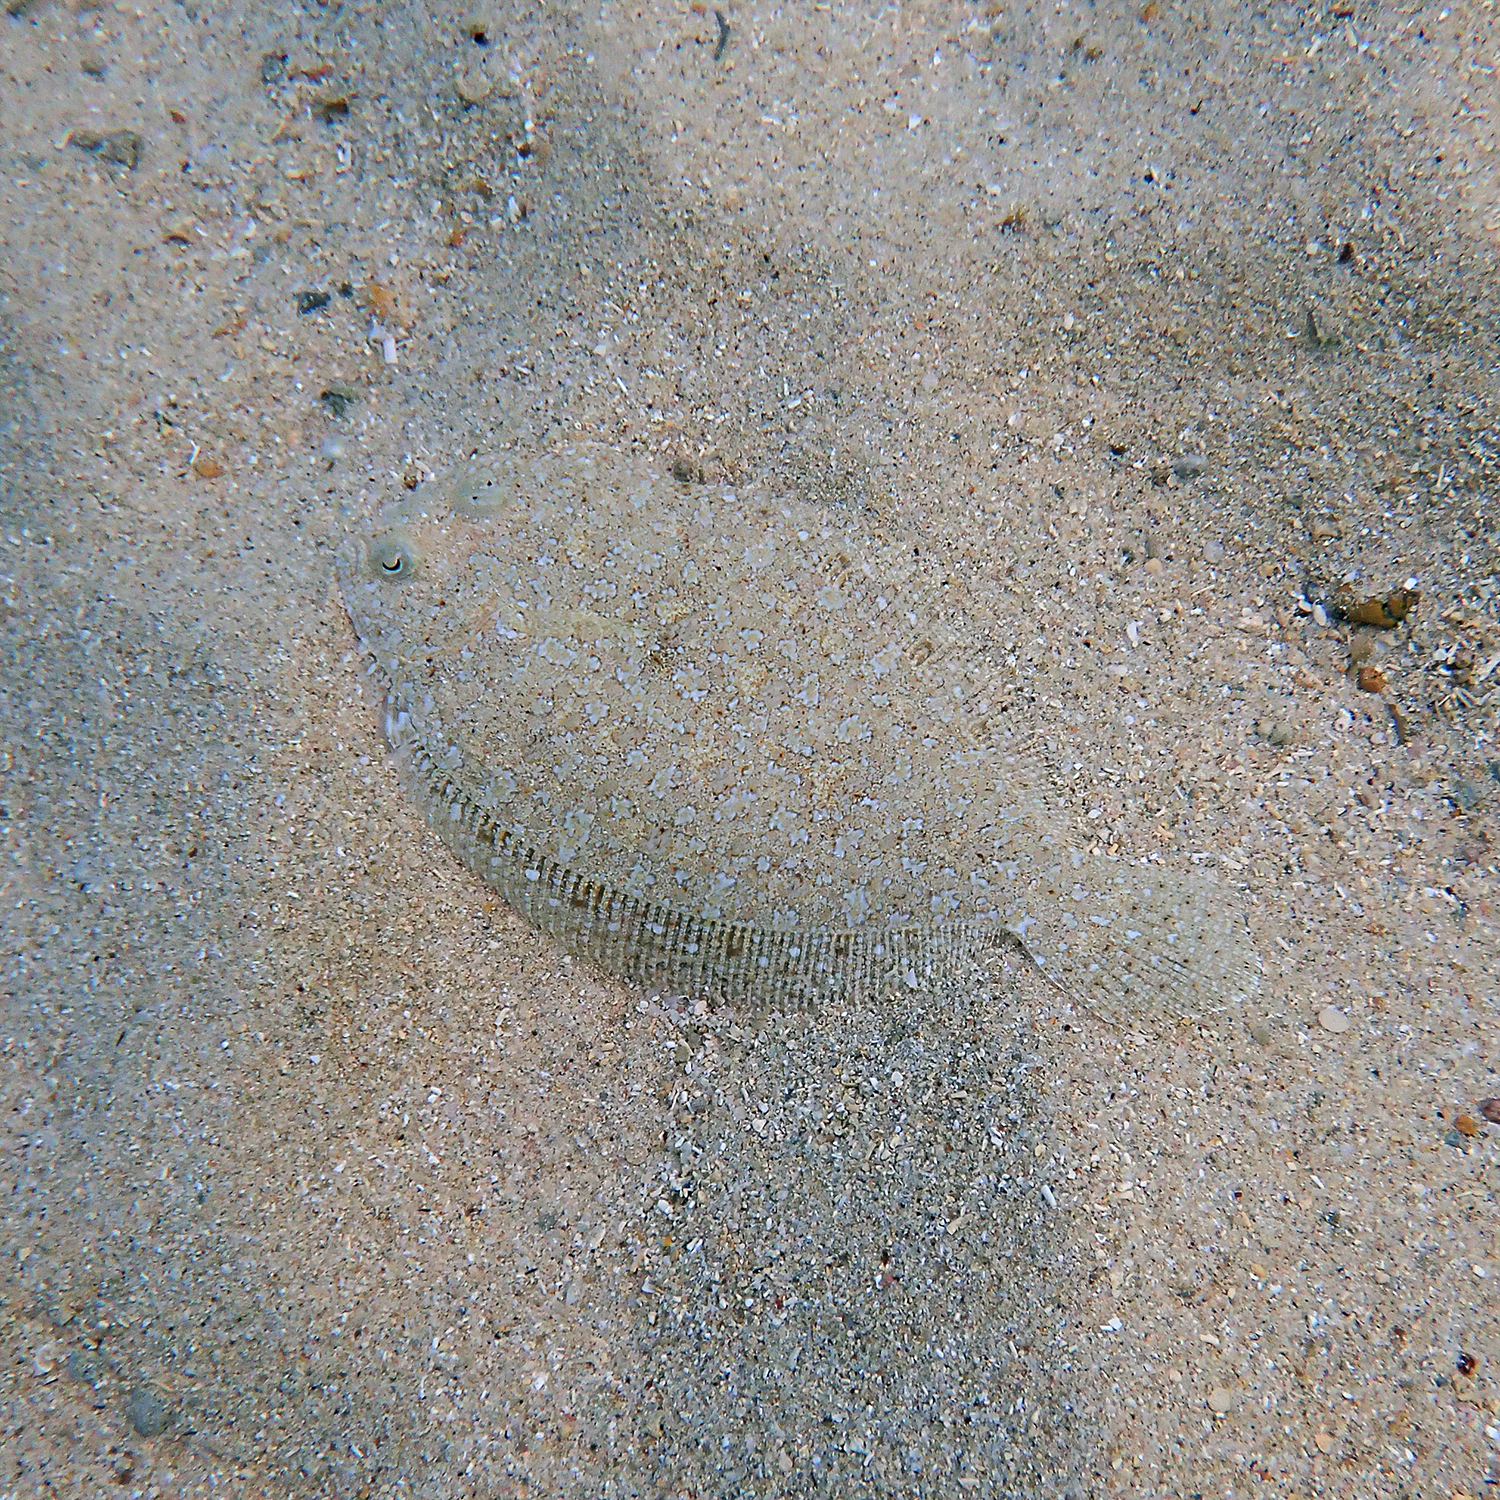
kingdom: Animalia
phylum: Chordata
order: Pleuronectiformes
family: Bothidae
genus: Bothus
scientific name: Bothus pantherinus
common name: Leopard flounder
